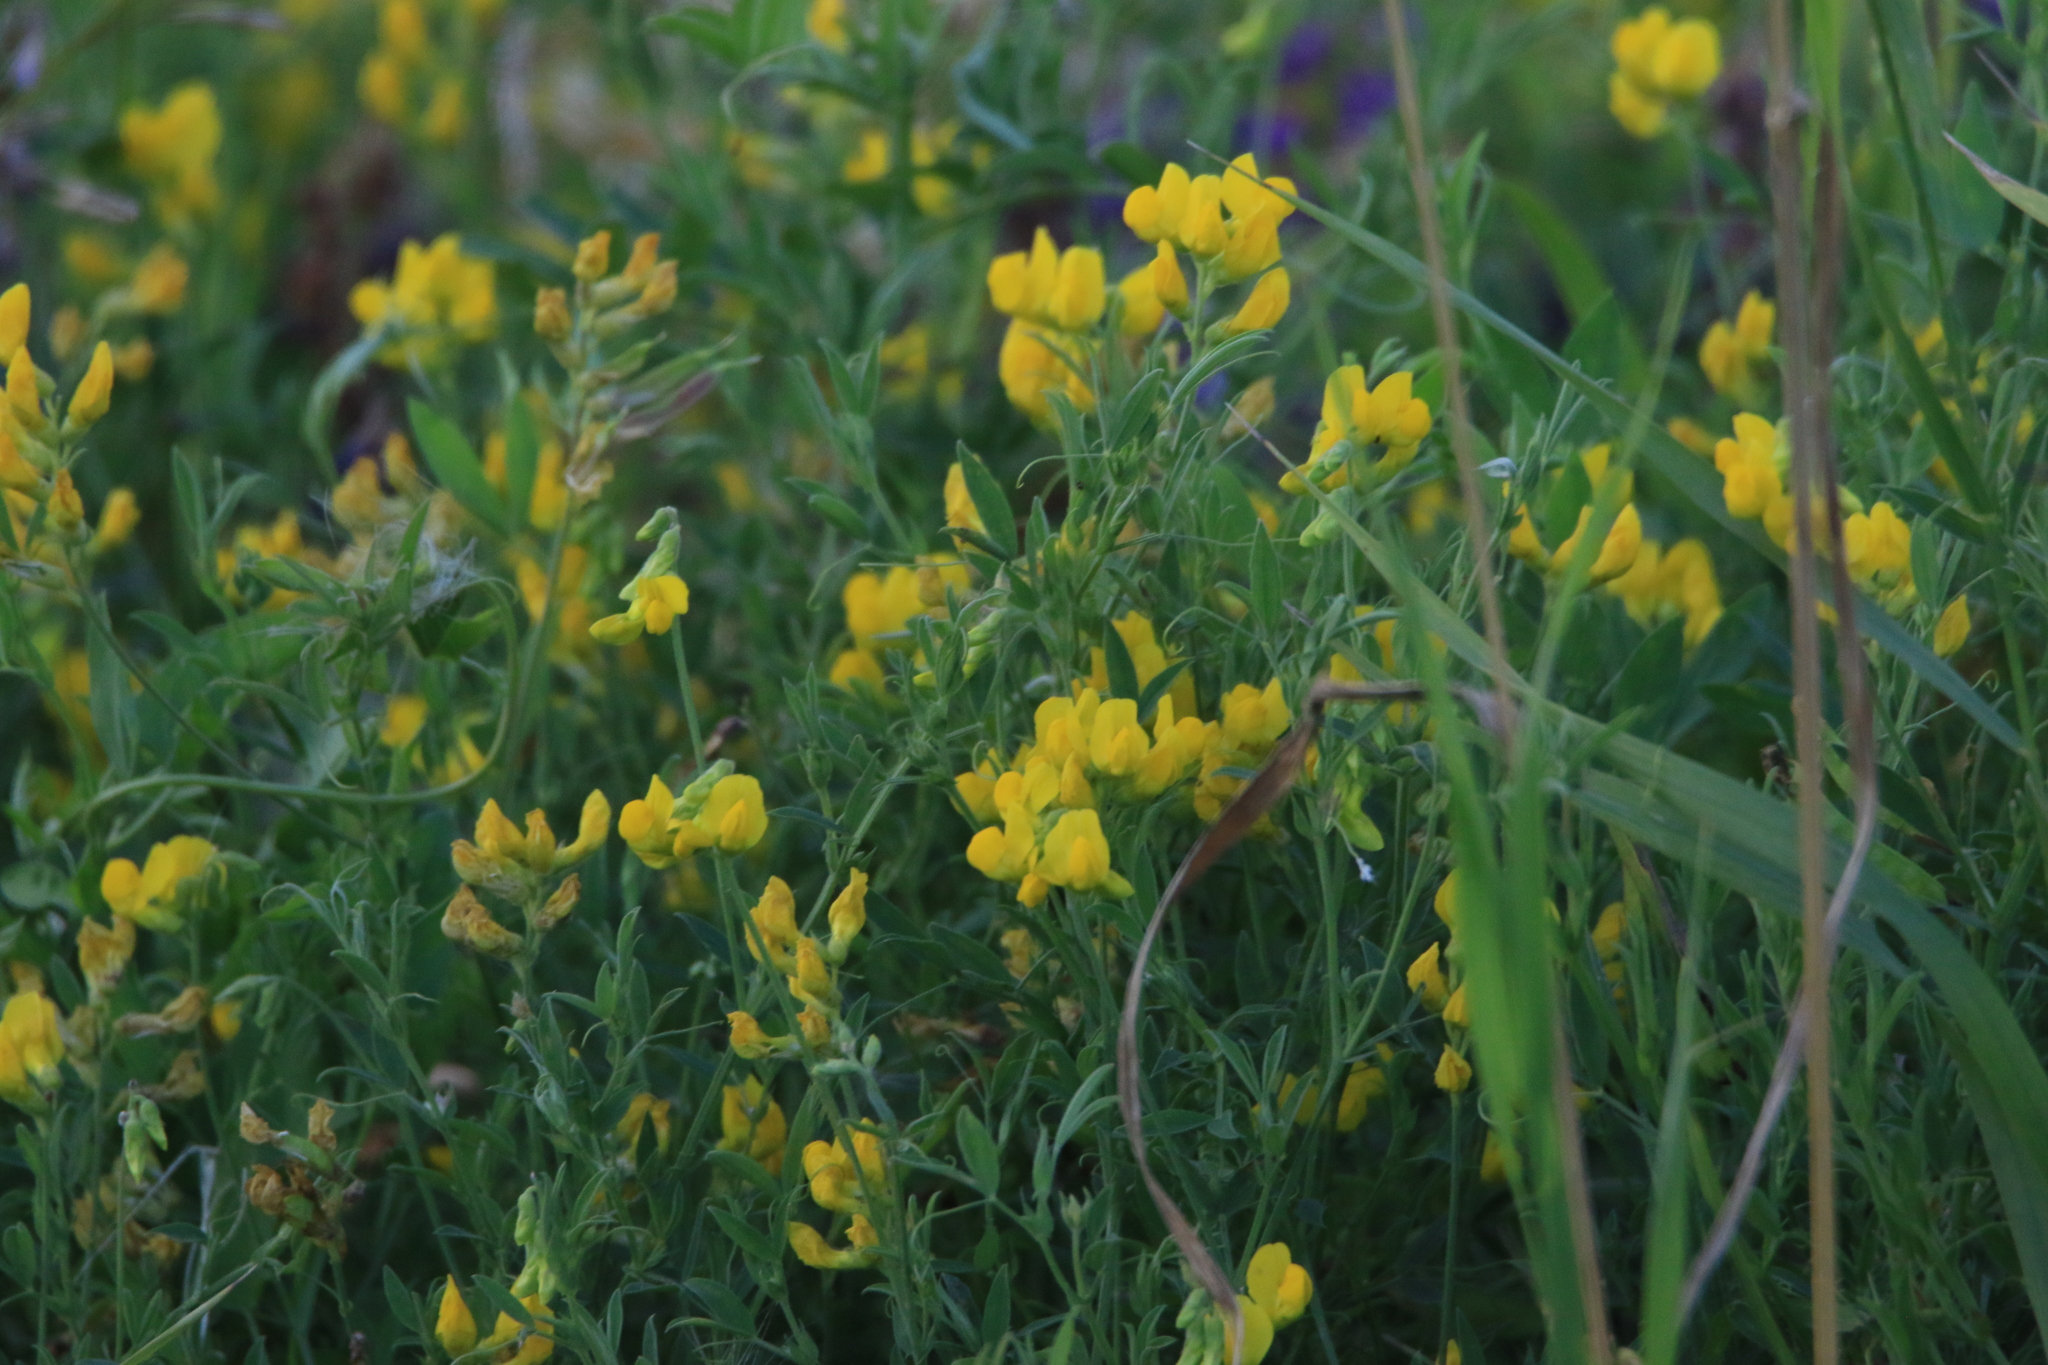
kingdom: Plantae
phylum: Tracheophyta
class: Magnoliopsida
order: Fabales
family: Fabaceae
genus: Lathyrus
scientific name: Lathyrus pratensis
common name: Meadow vetchling
